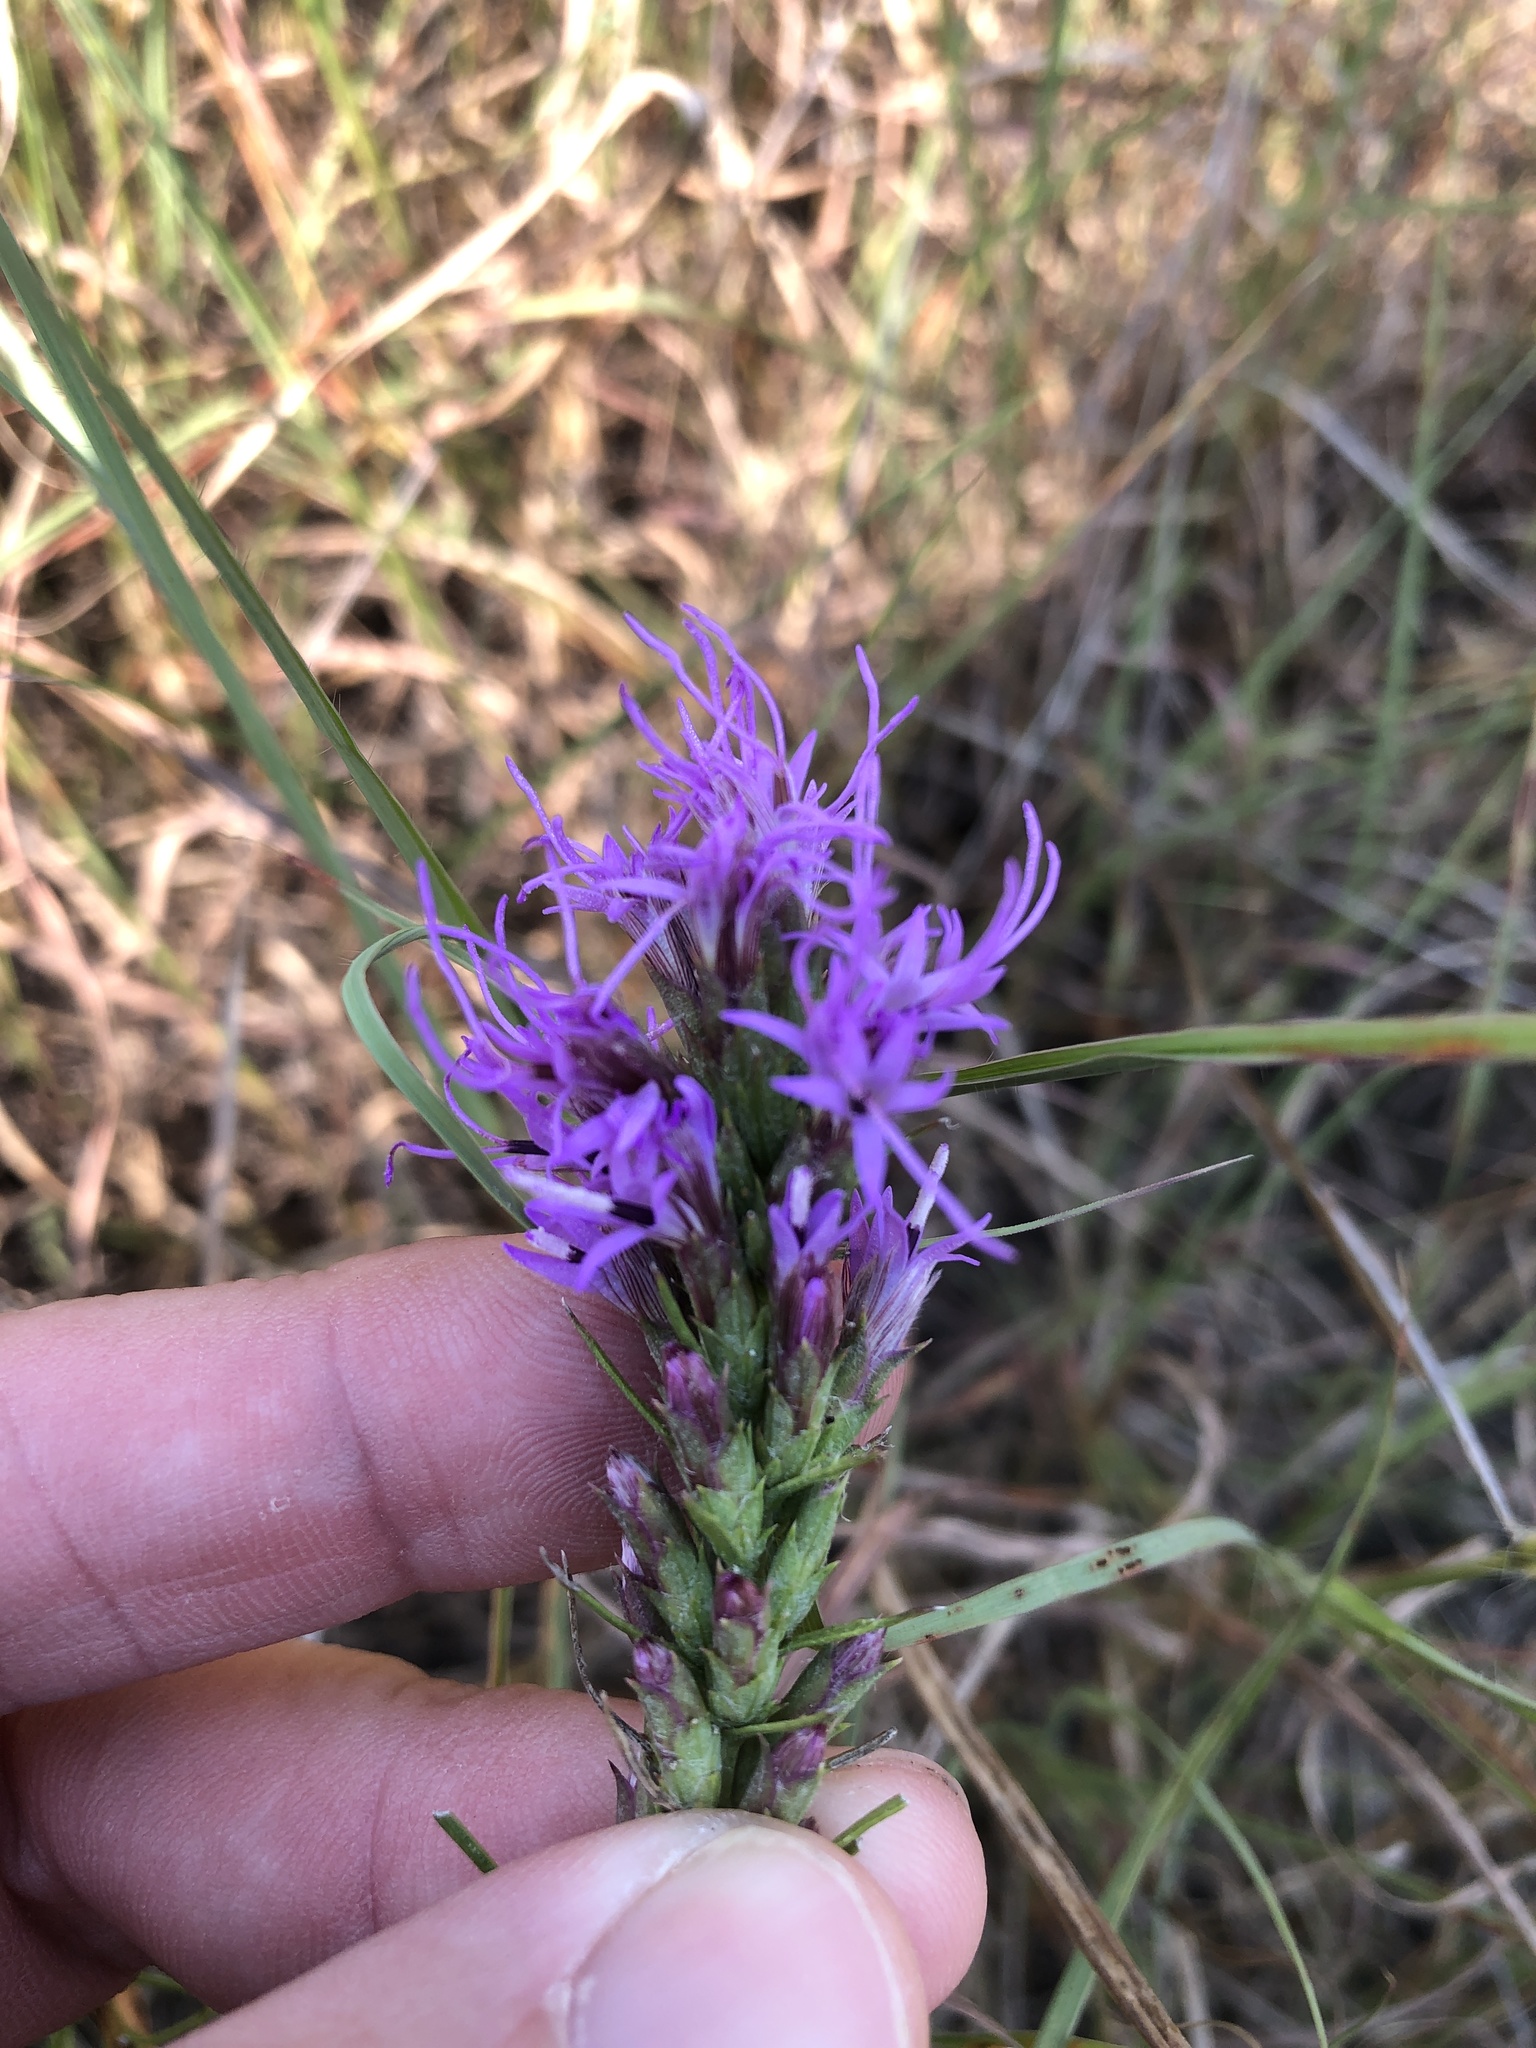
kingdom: Plantae
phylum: Tracheophyta
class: Magnoliopsida
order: Asterales
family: Asteraceae
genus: Liatris
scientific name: Liatris punctata
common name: Dotted gayfeather
